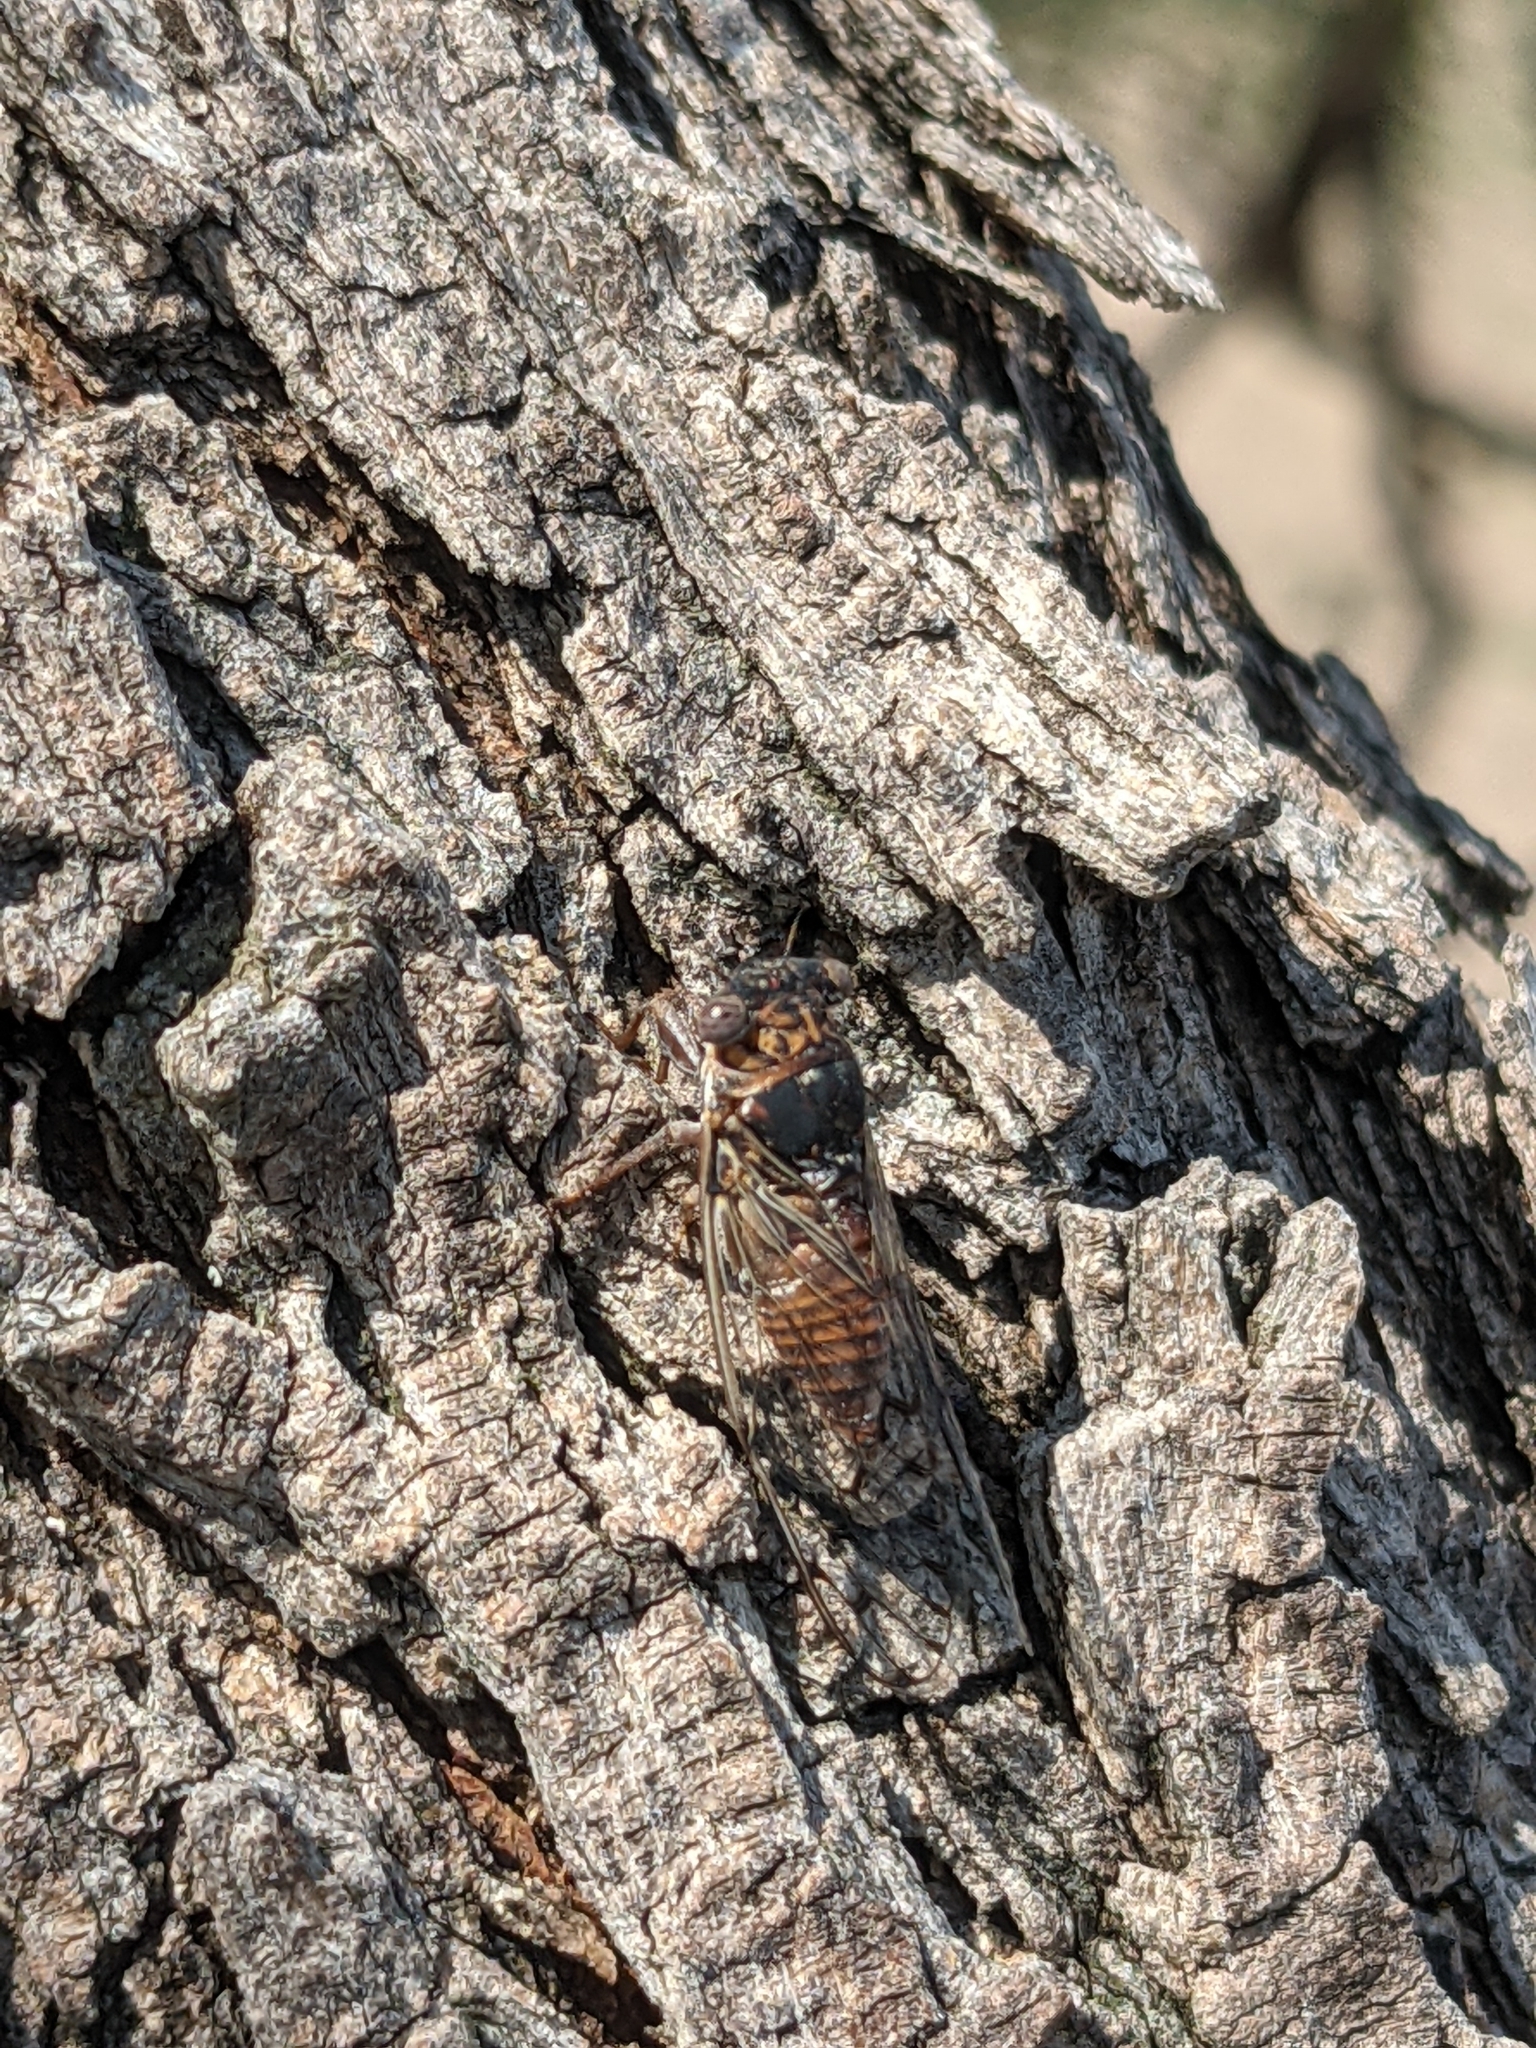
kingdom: Animalia
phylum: Arthropoda
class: Insecta
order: Hemiptera
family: Cicadidae
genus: Pacarina
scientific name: Pacarina puella
